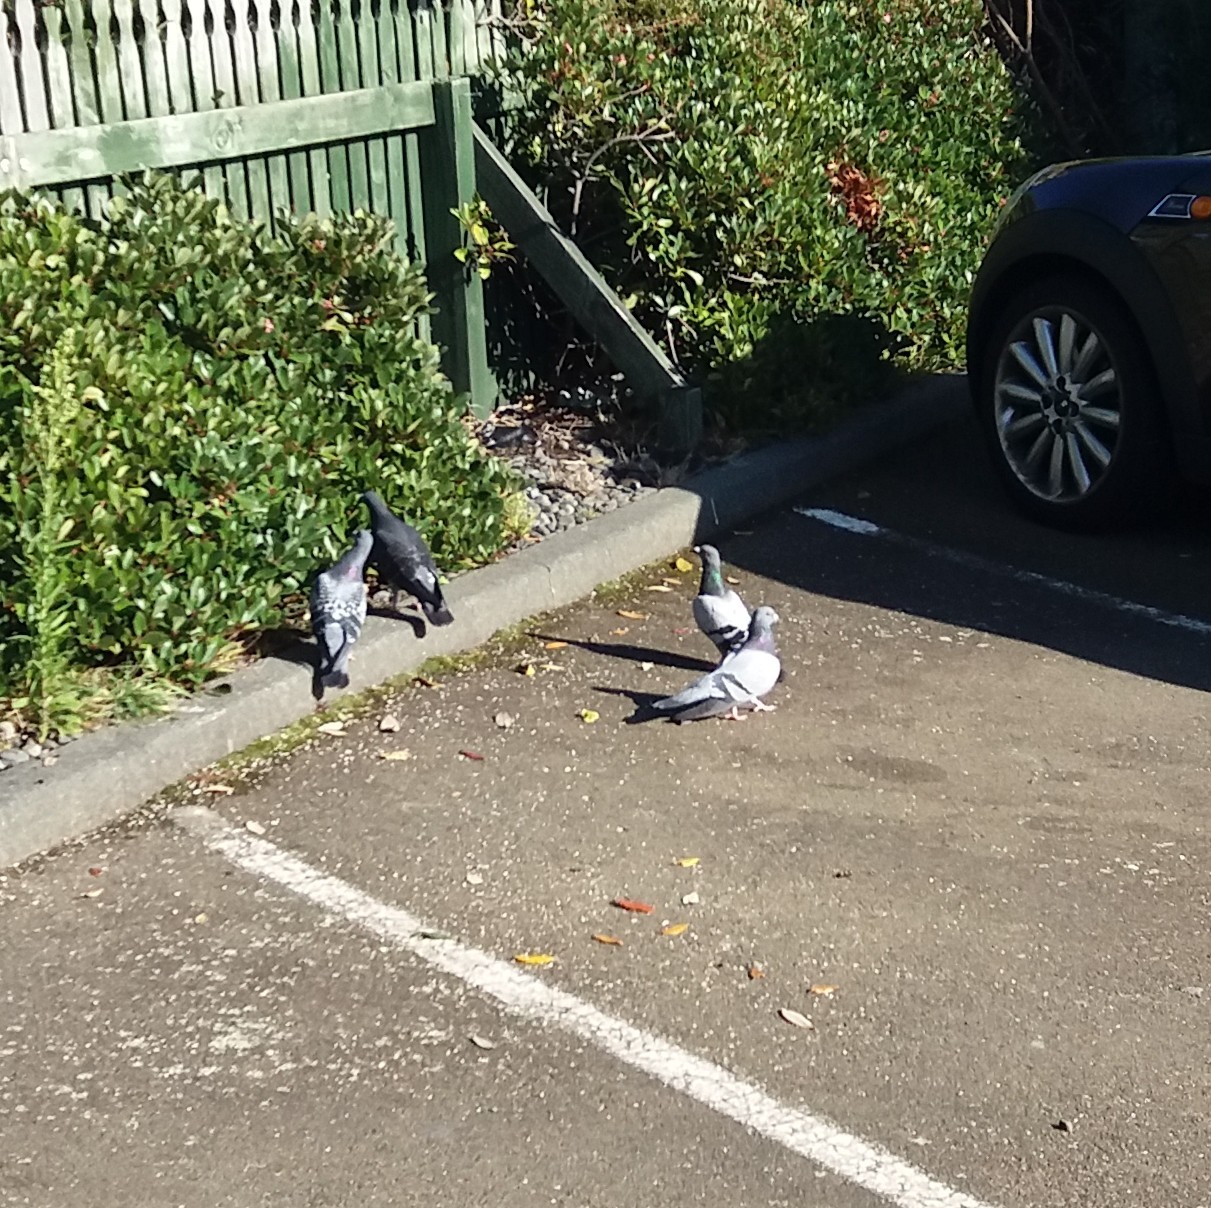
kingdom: Animalia
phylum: Chordata
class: Aves
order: Columbiformes
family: Columbidae
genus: Columba
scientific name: Columba livia
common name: Rock pigeon
